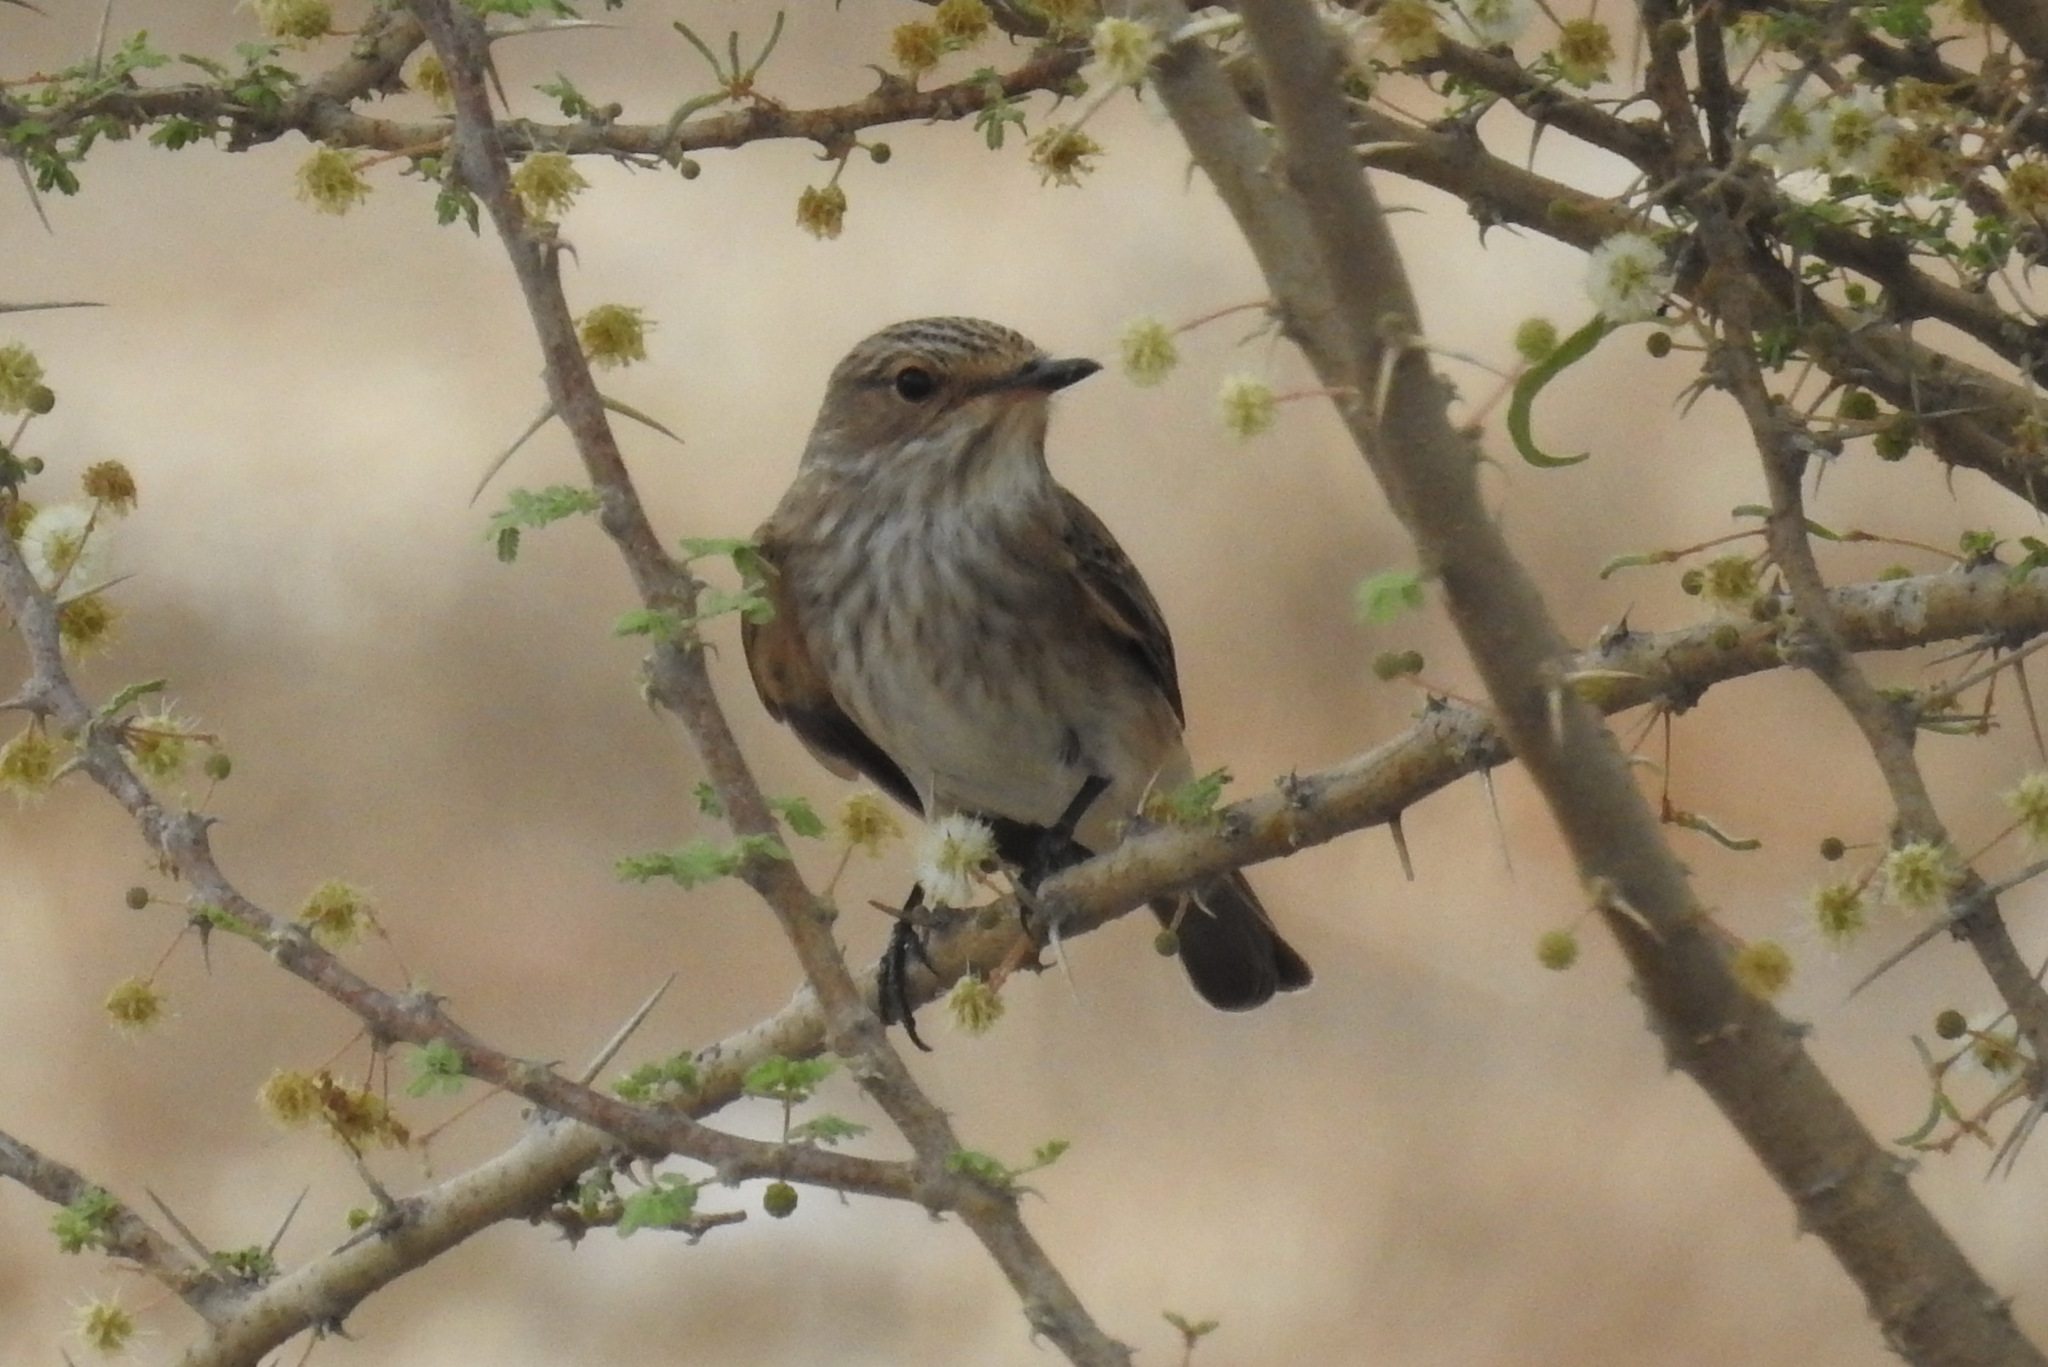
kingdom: Animalia
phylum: Chordata
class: Aves
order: Passeriformes
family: Muscicapidae
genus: Muscicapa
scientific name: Muscicapa striata
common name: Spotted flycatcher
